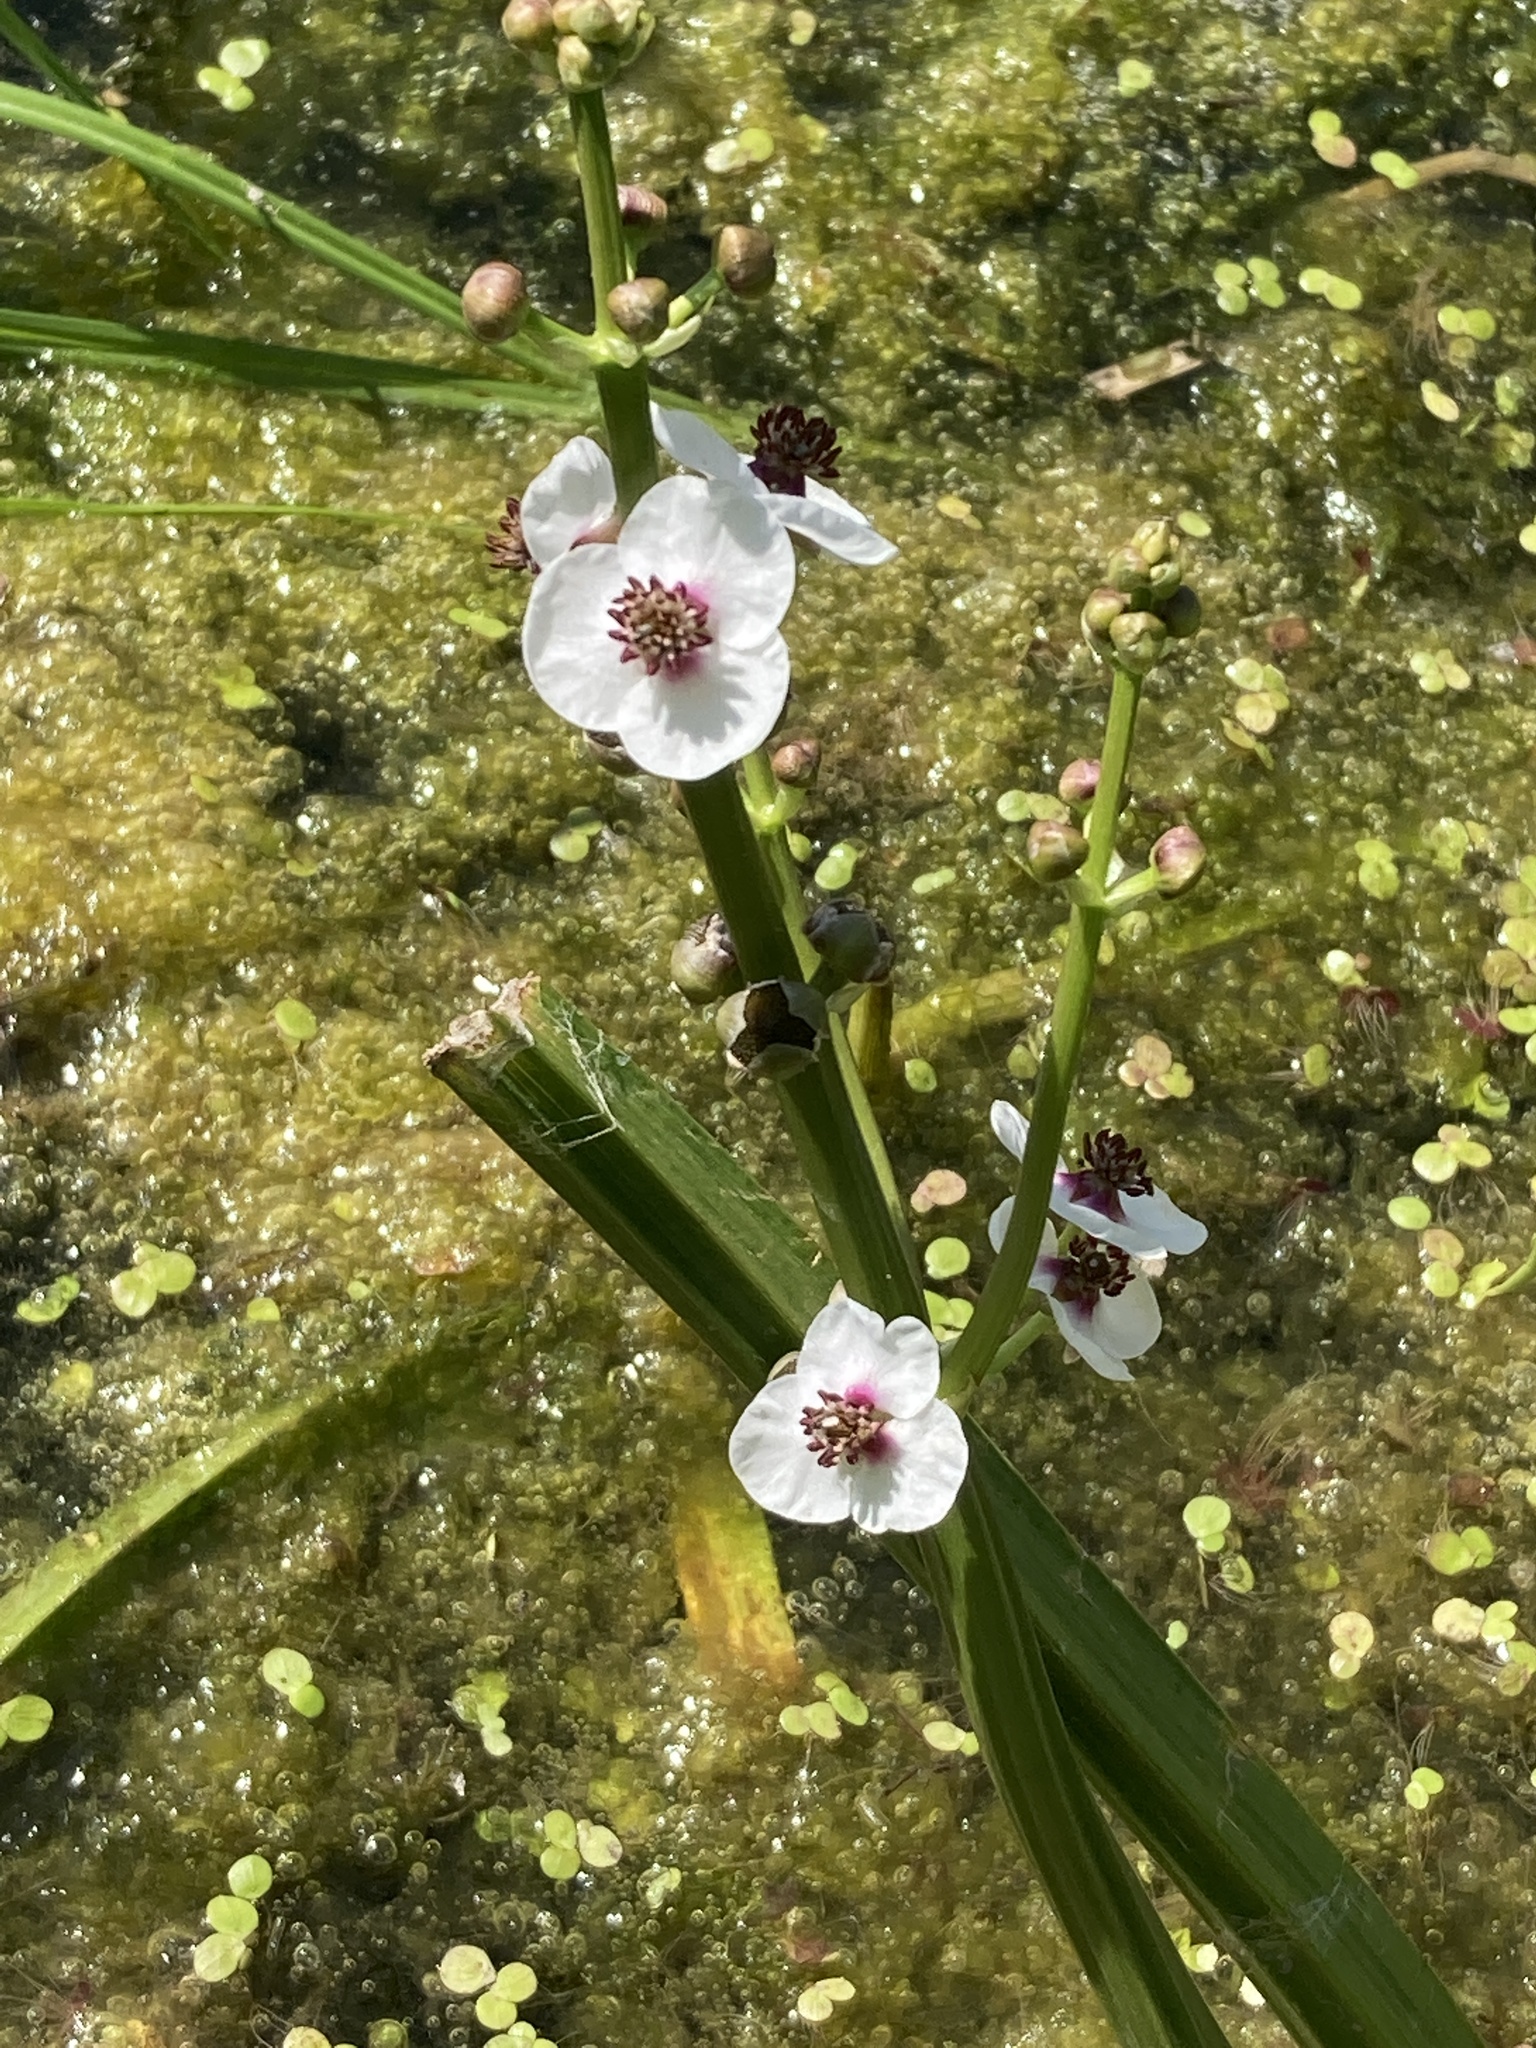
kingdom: Plantae
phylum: Tracheophyta
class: Liliopsida
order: Alismatales
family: Alismataceae
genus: Sagittaria
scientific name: Sagittaria sagittifolia
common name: Arrowhead
